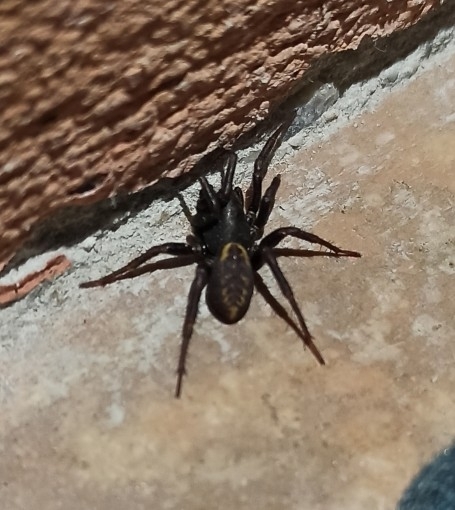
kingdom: Animalia
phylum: Arthropoda
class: Arachnida
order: Araneae
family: Zodariidae
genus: Cybaeodamus
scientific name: Cybaeodamus meridionalis
